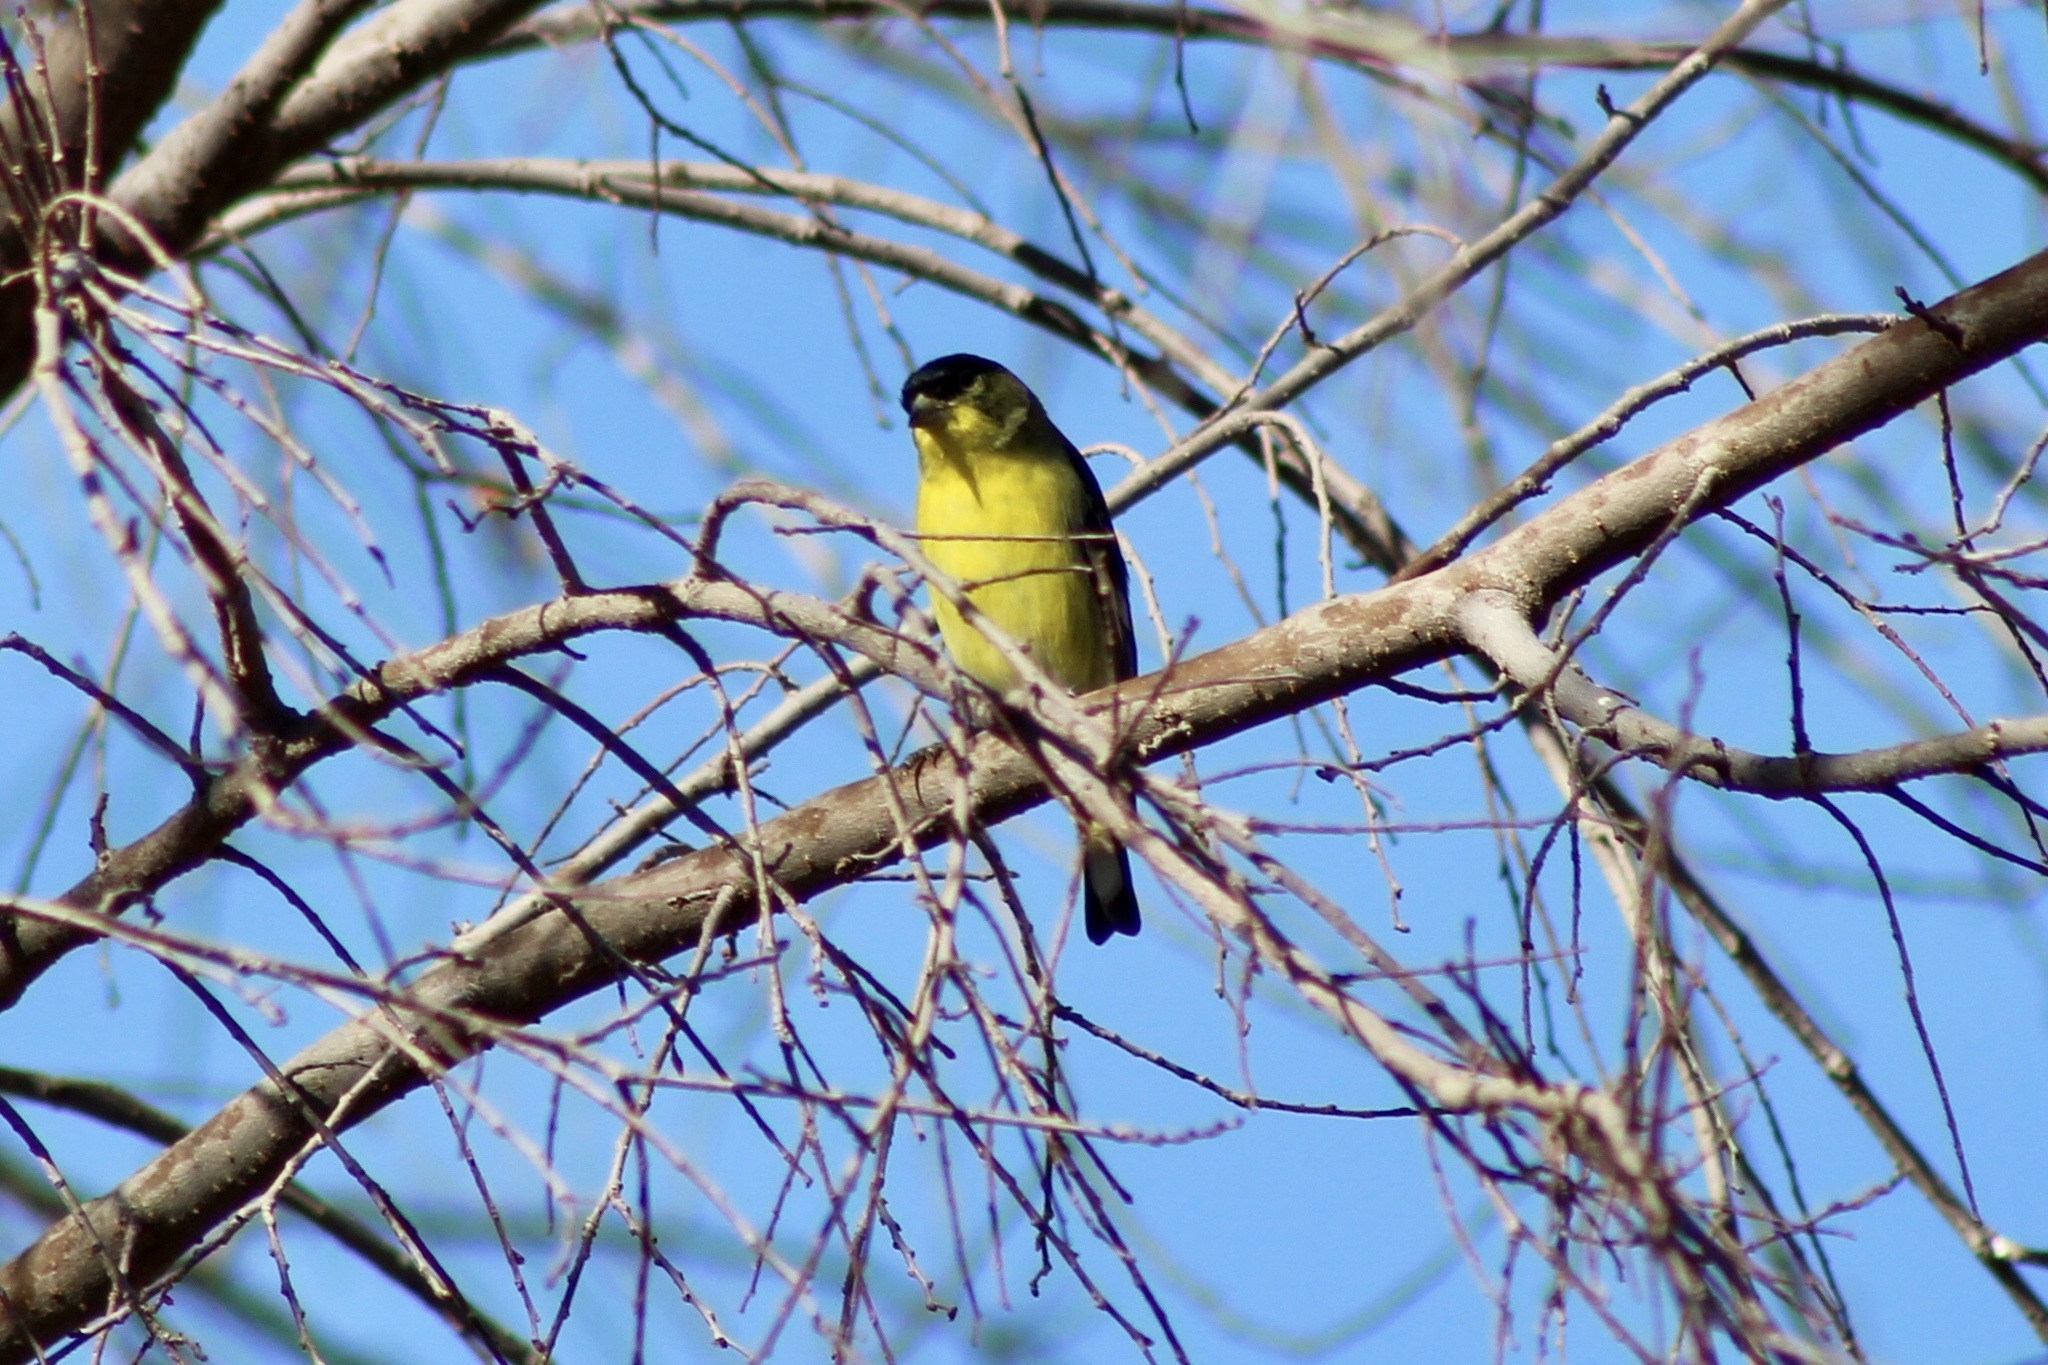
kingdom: Animalia
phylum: Chordata
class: Aves
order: Passeriformes
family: Fringillidae
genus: Spinus
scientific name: Spinus psaltria
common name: Lesser goldfinch
